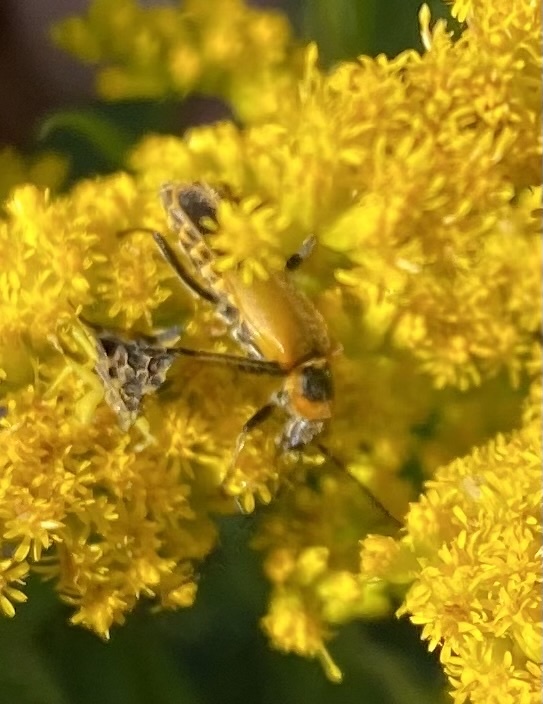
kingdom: Animalia
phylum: Arthropoda
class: Insecta
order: Coleoptera
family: Cantharidae
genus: Chauliognathus
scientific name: Chauliognathus pensylvanicus
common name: Goldenrod soldier beetle
